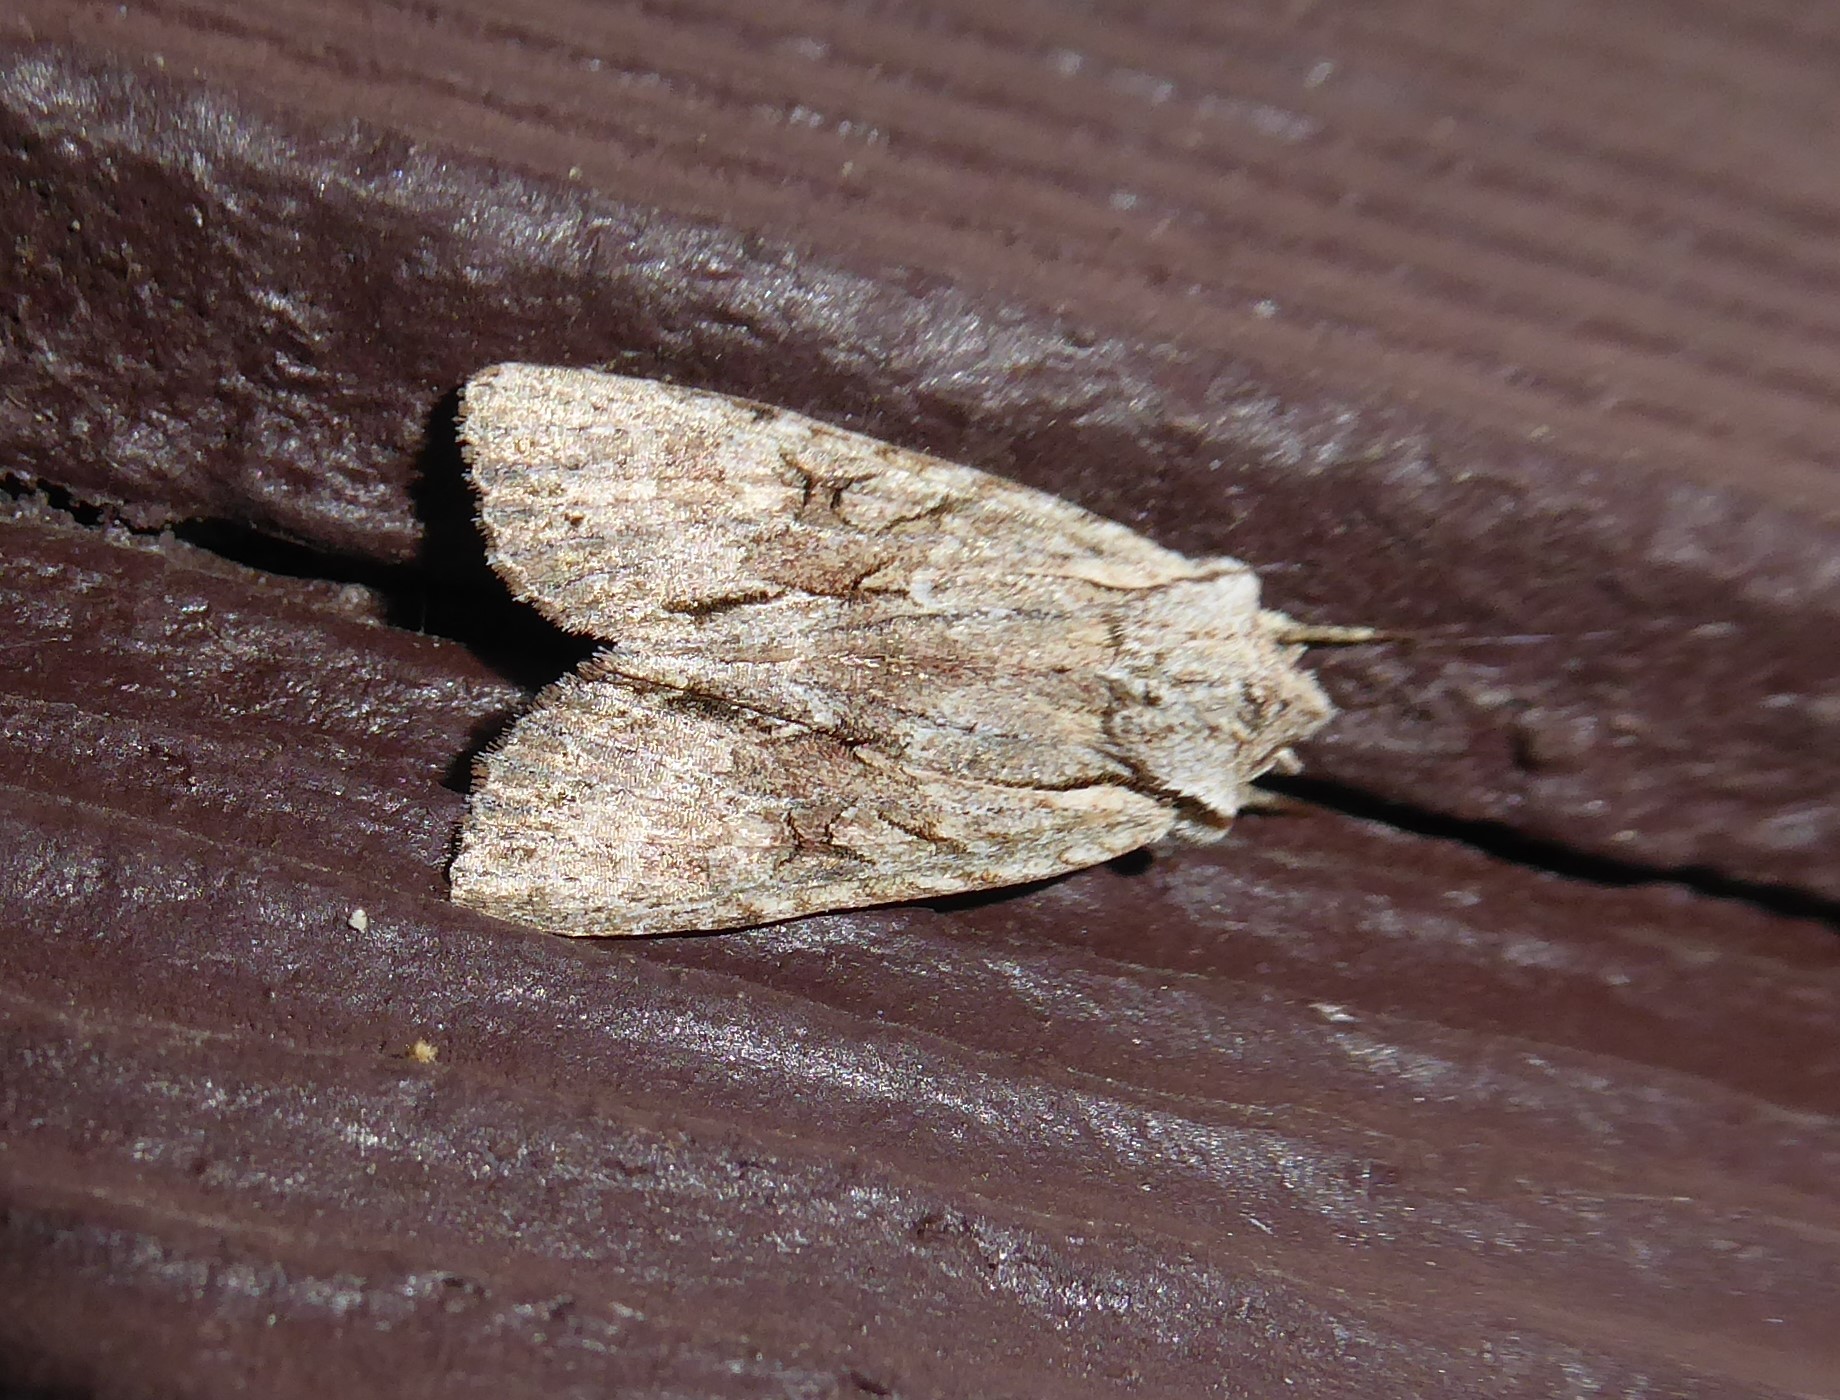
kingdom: Animalia
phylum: Arthropoda
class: Insecta
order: Lepidoptera
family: Noctuidae
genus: Ichneutica
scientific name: Ichneutica
